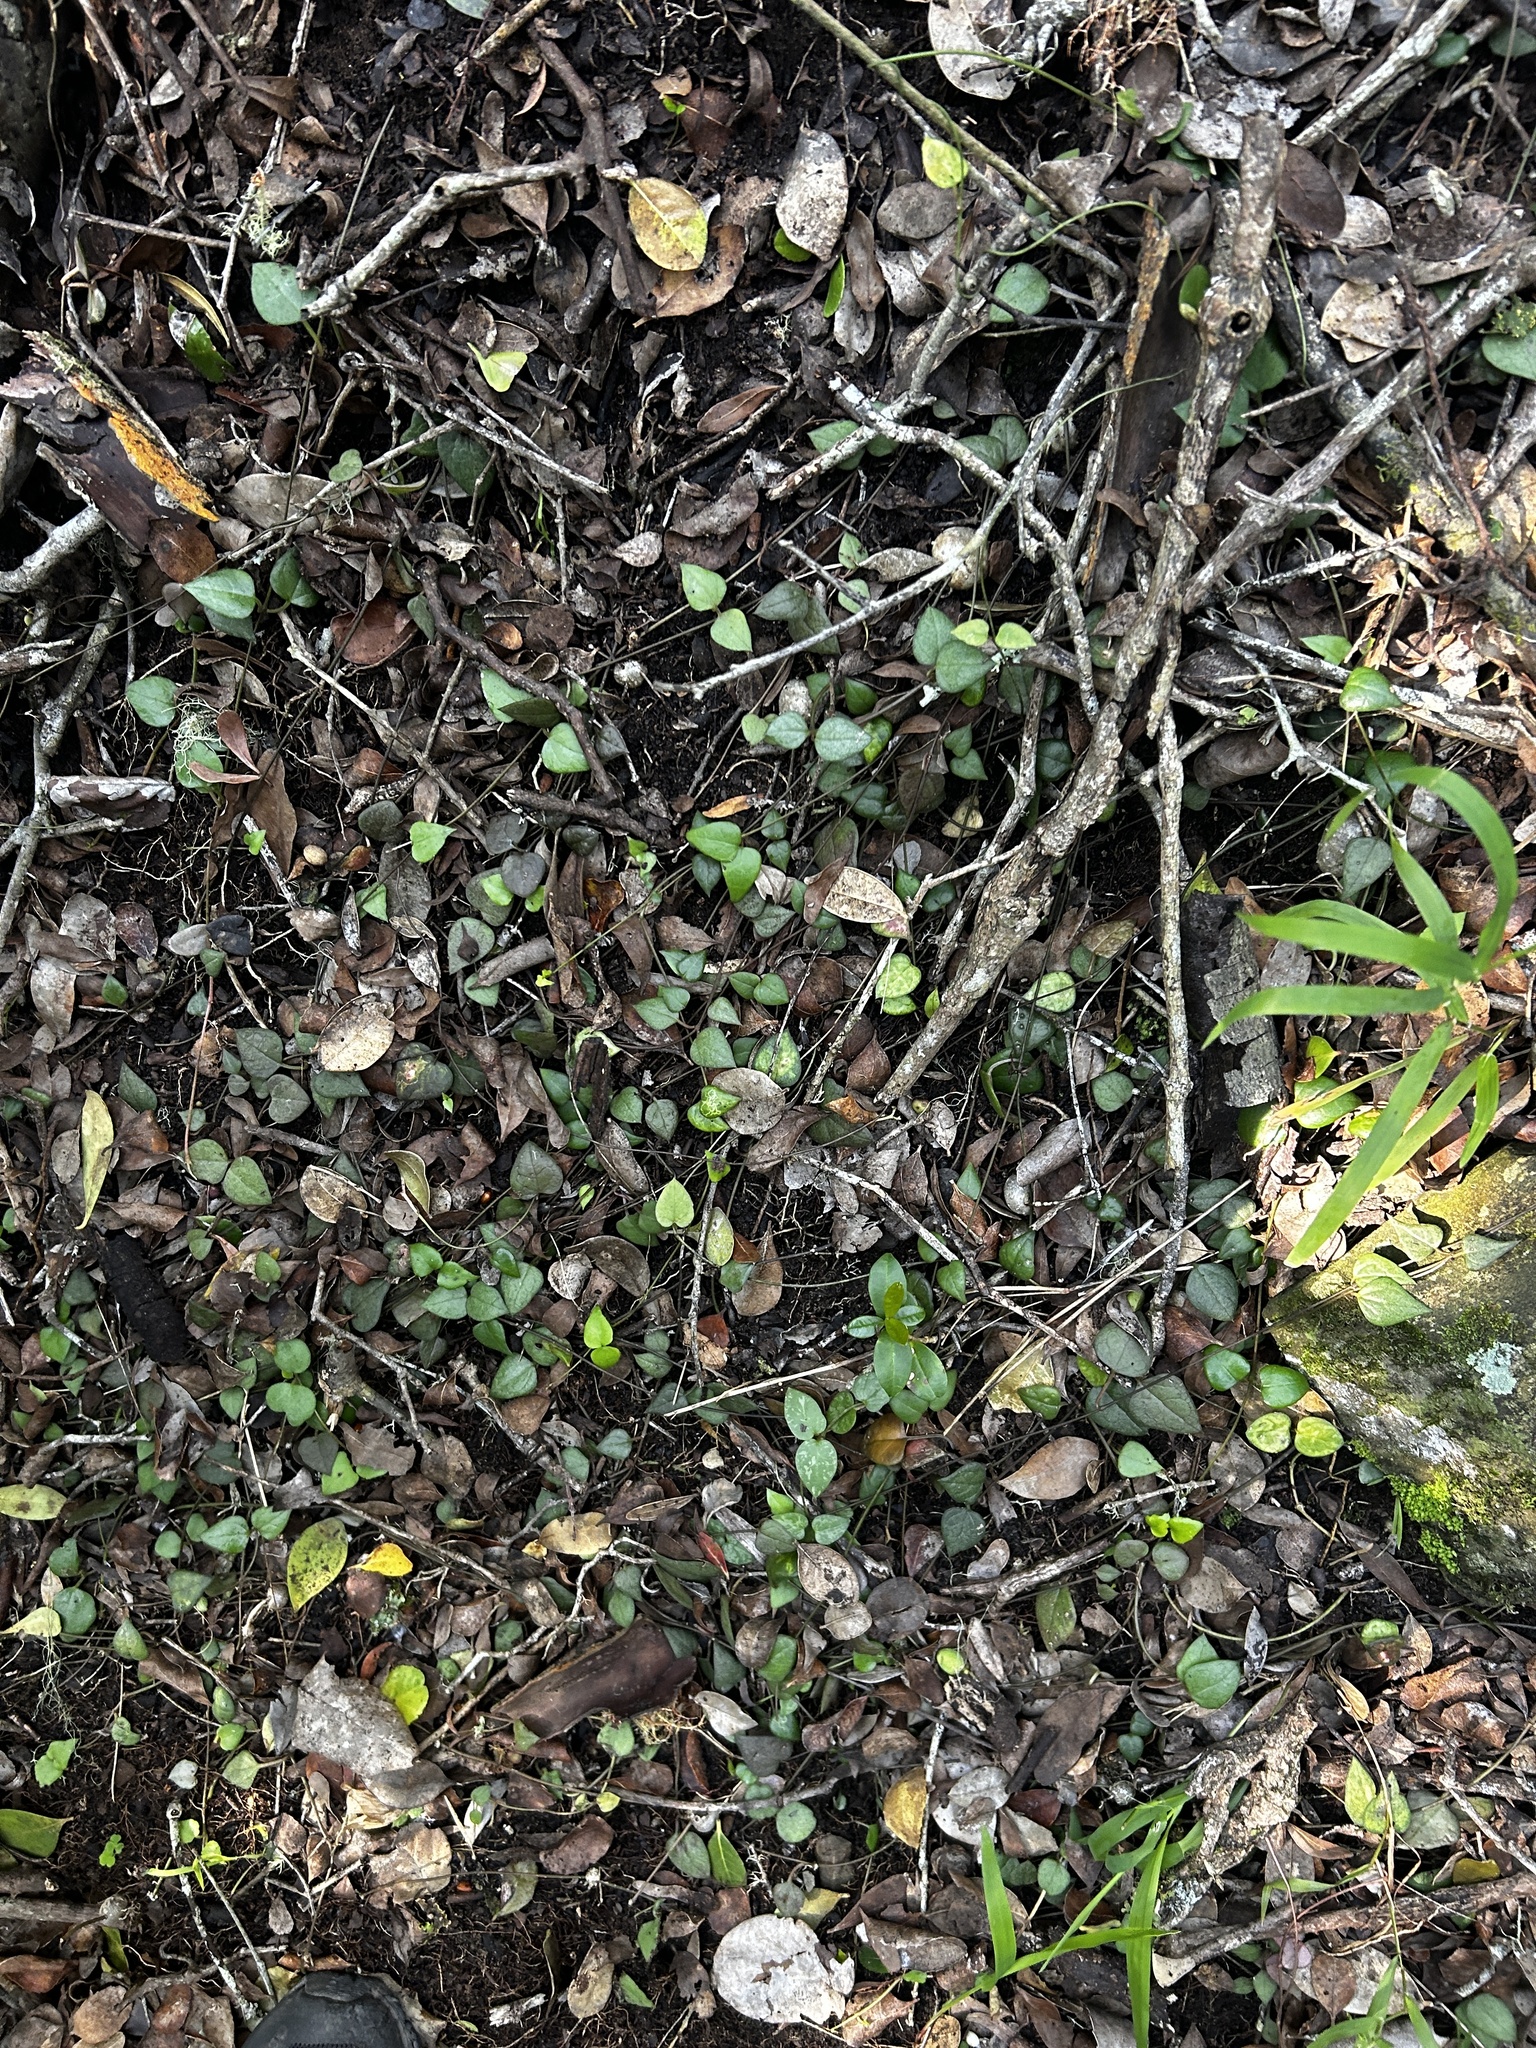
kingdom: Plantae
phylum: Tracheophyta
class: Magnoliopsida
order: Gentianales
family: Apocynaceae
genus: Ceropegia
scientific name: Ceropegia linearis
